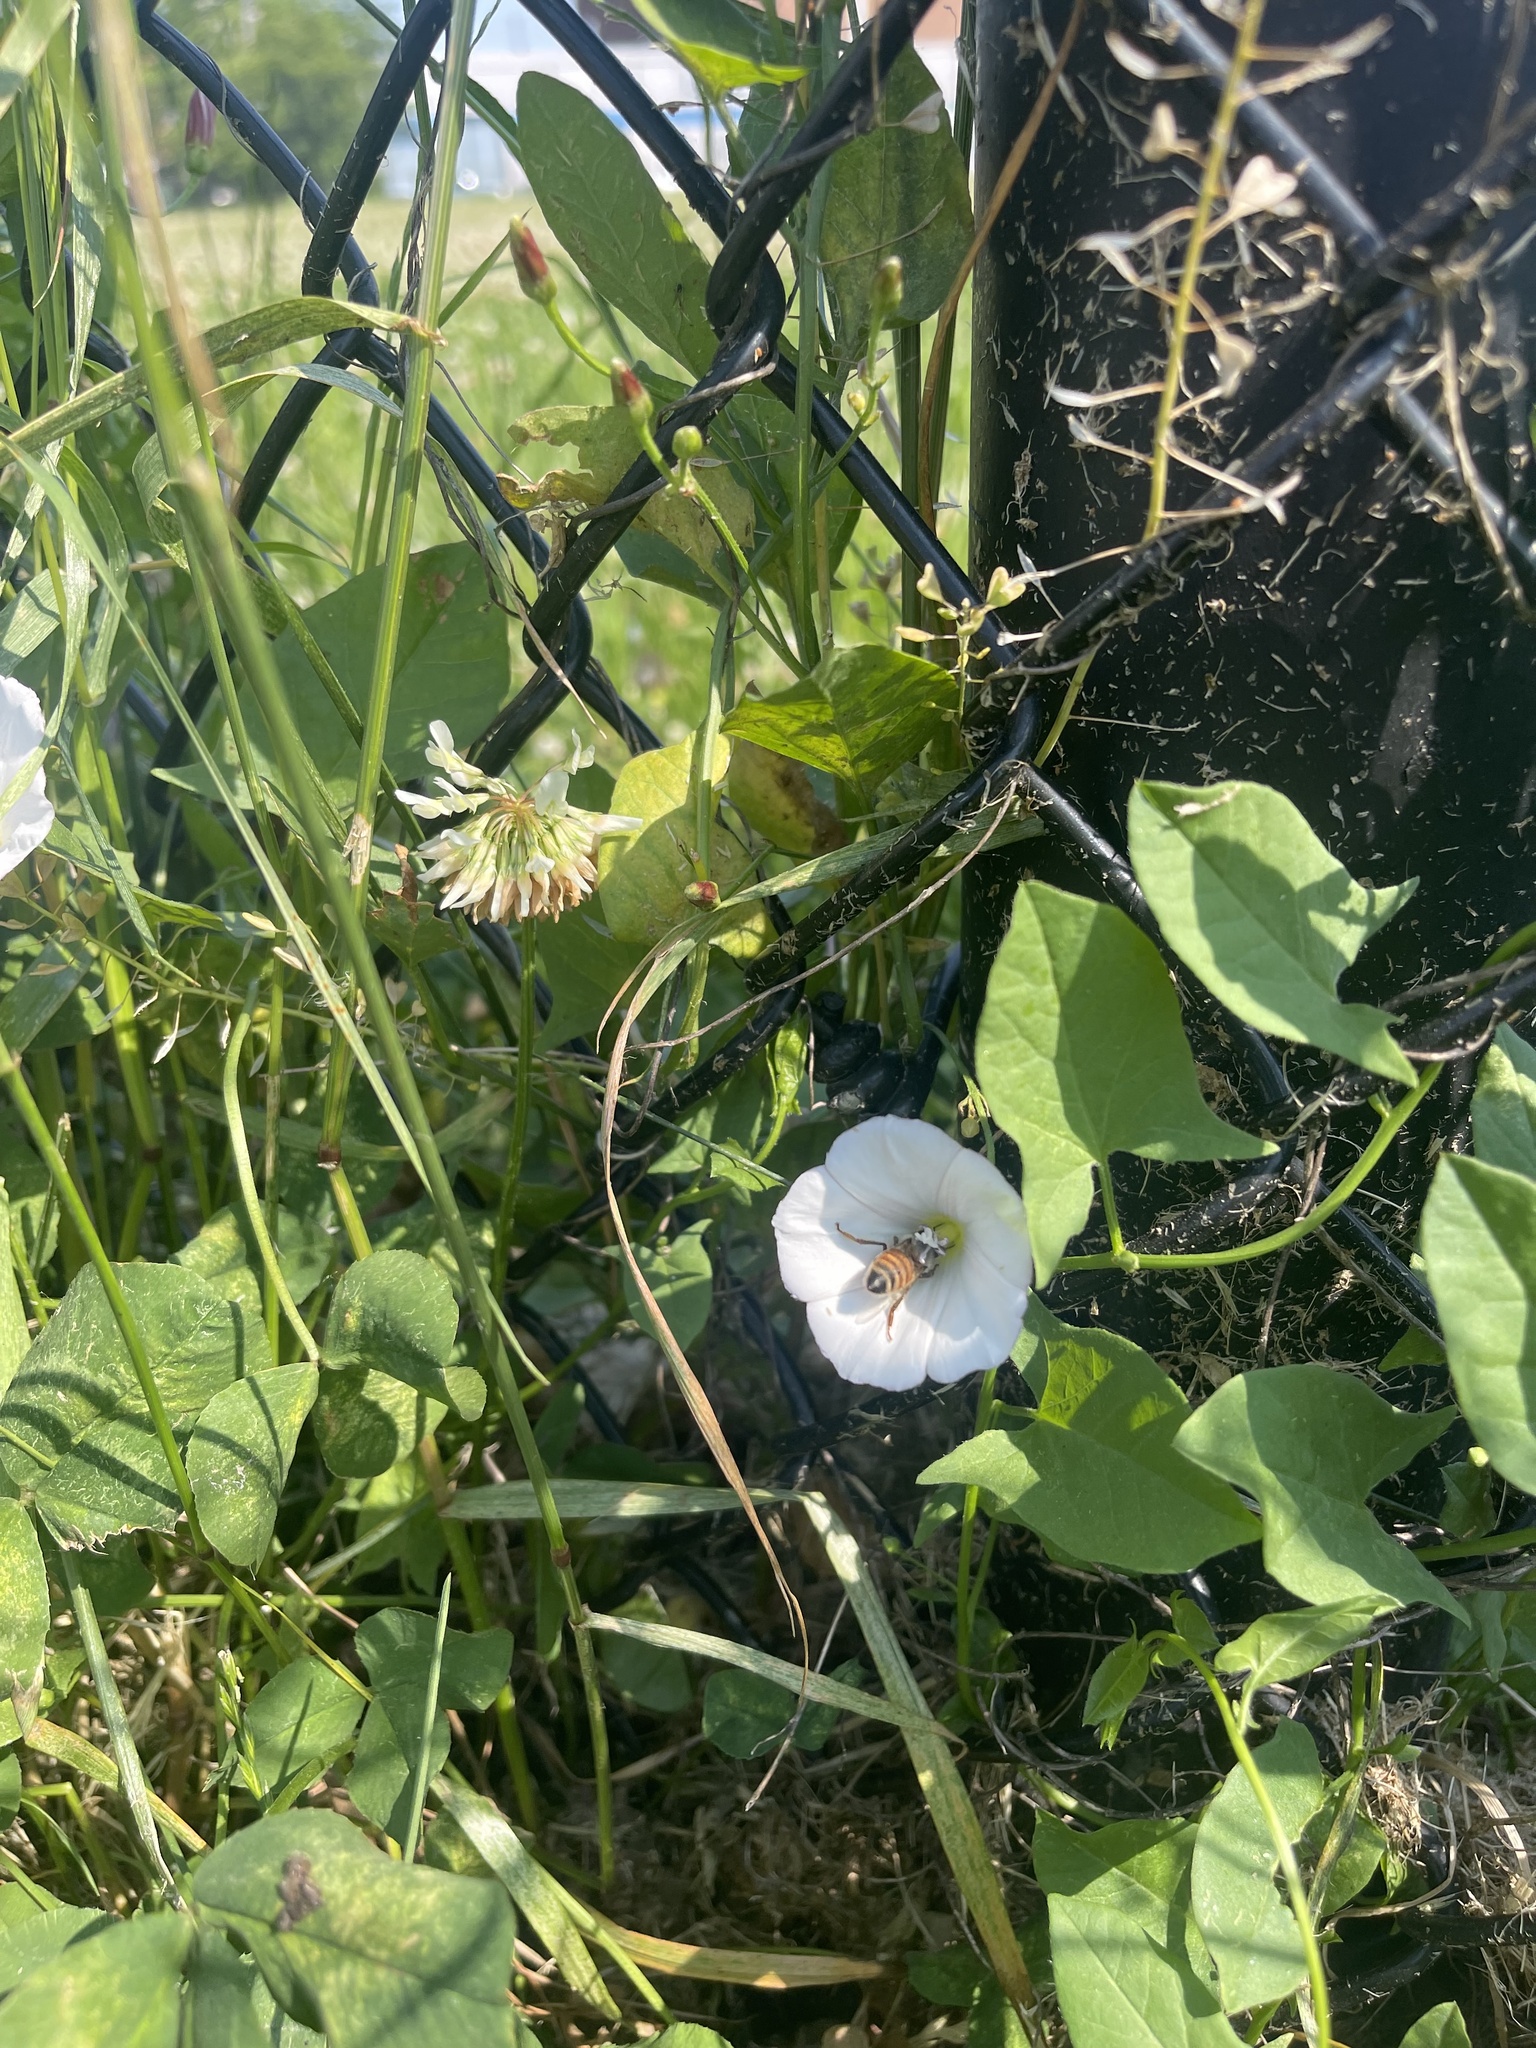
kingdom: Plantae
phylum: Tracheophyta
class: Magnoliopsida
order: Solanales
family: Convolvulaceae
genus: Calystegia
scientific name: Calystegia sepium
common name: Hedge bindweed
